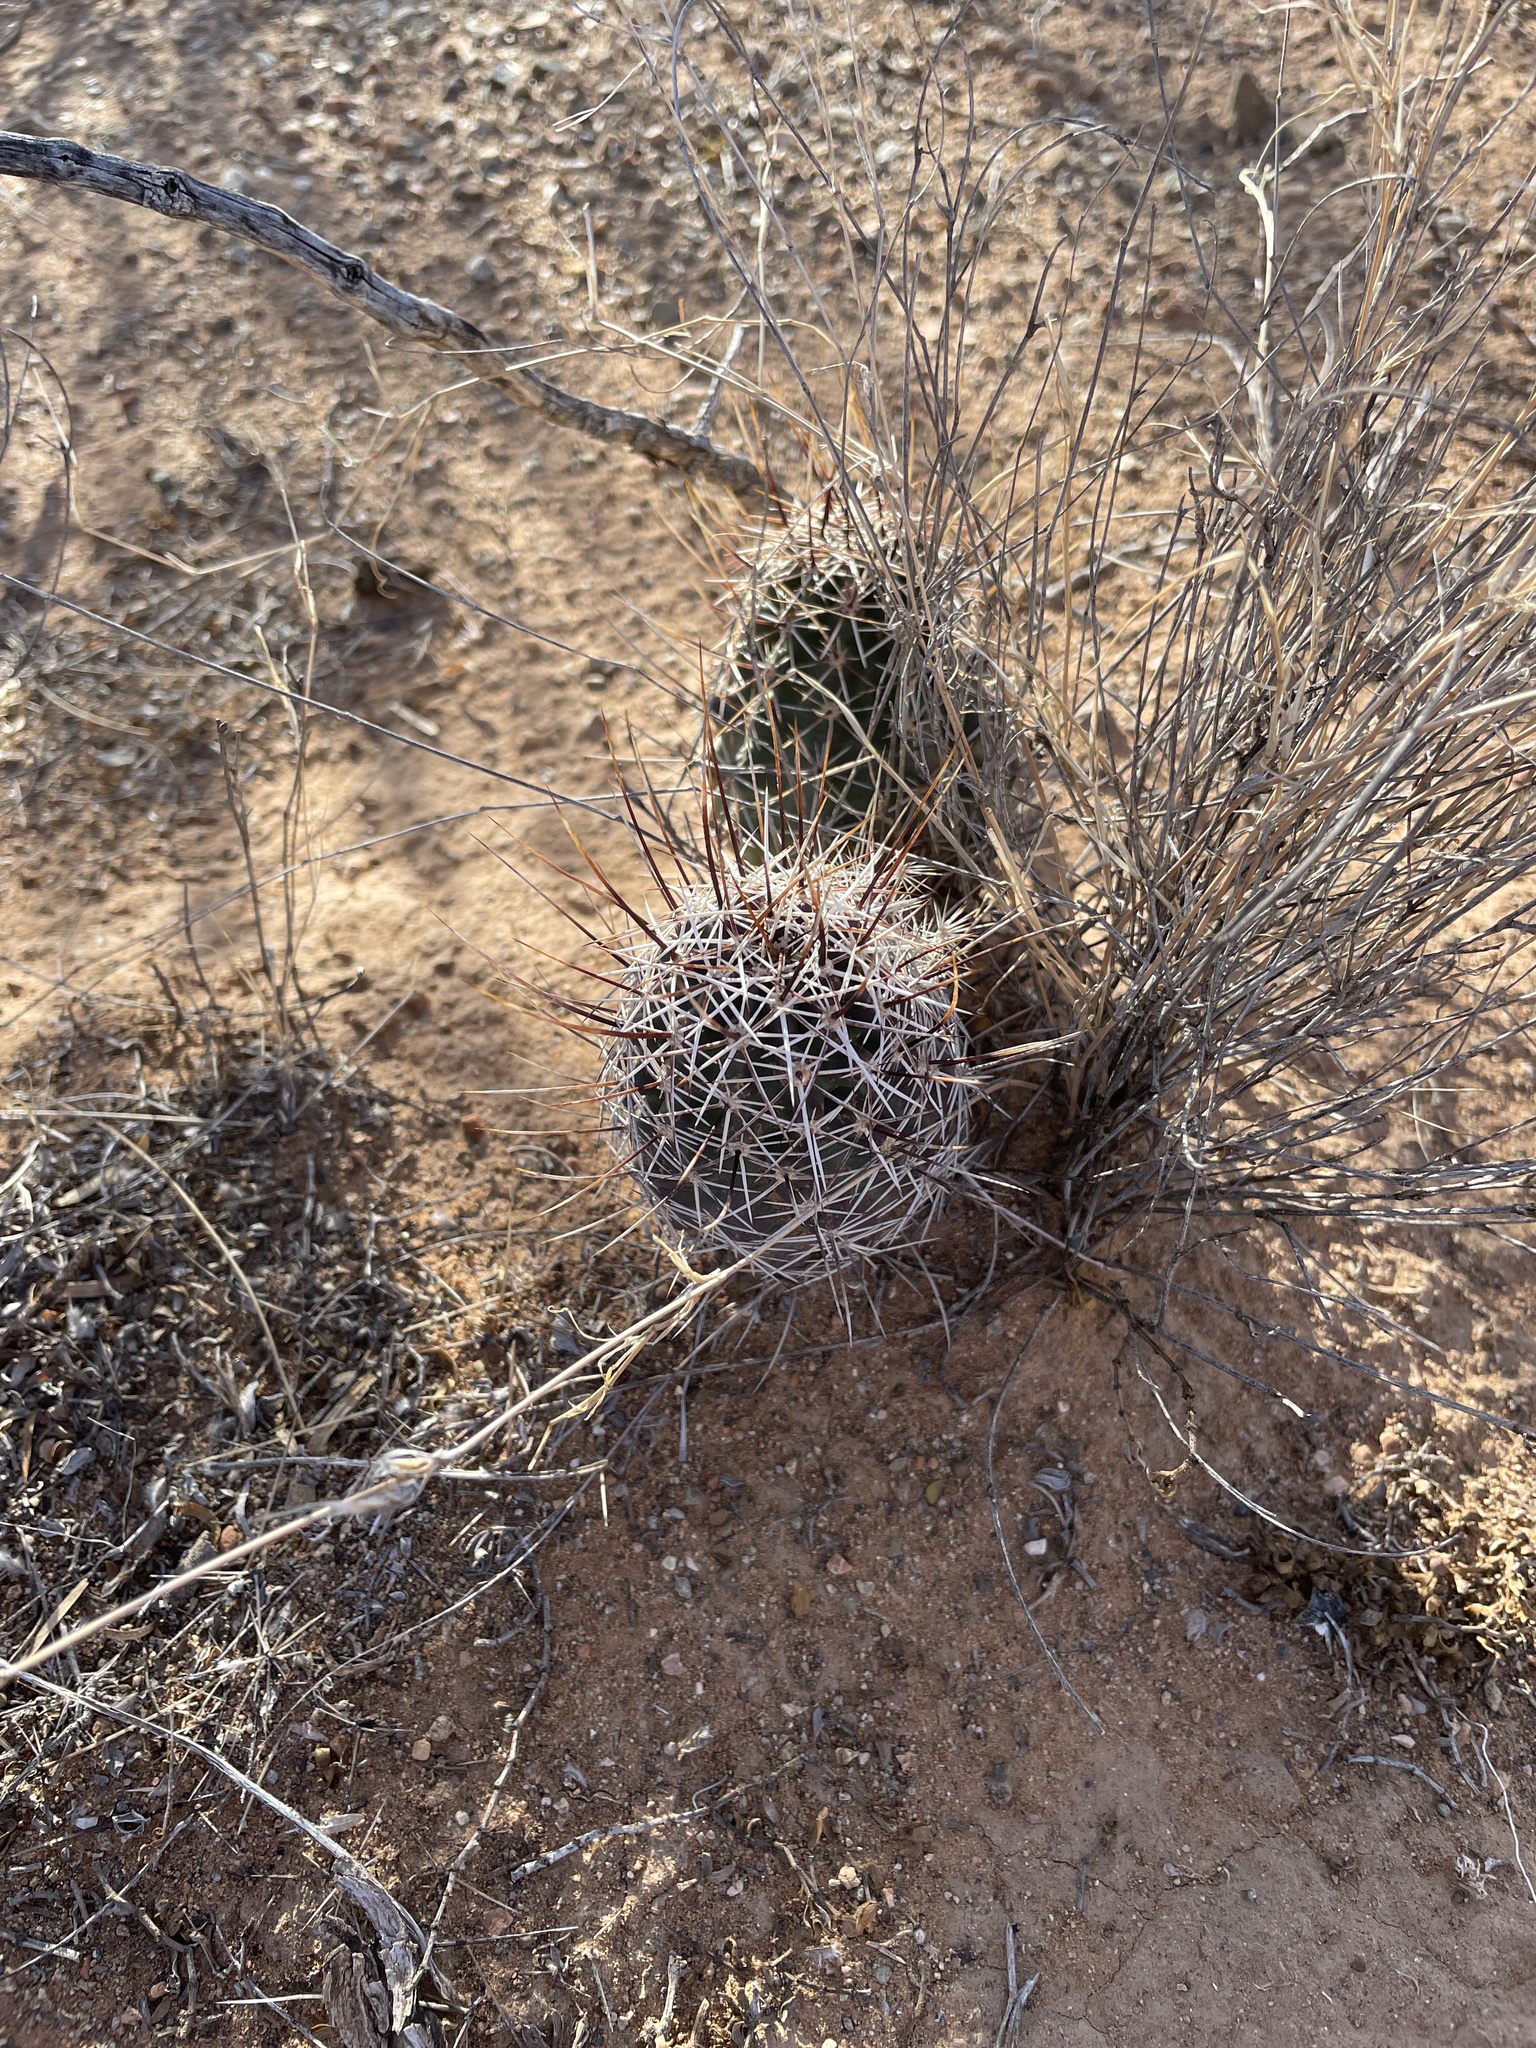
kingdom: Plantae
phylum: Tracheophyta
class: Magnoliopsida
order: Caryophyllales
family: Cactaceae
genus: Echinocereus
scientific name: Echinocereus fendleri
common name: Fendler's hedgehog cactus
